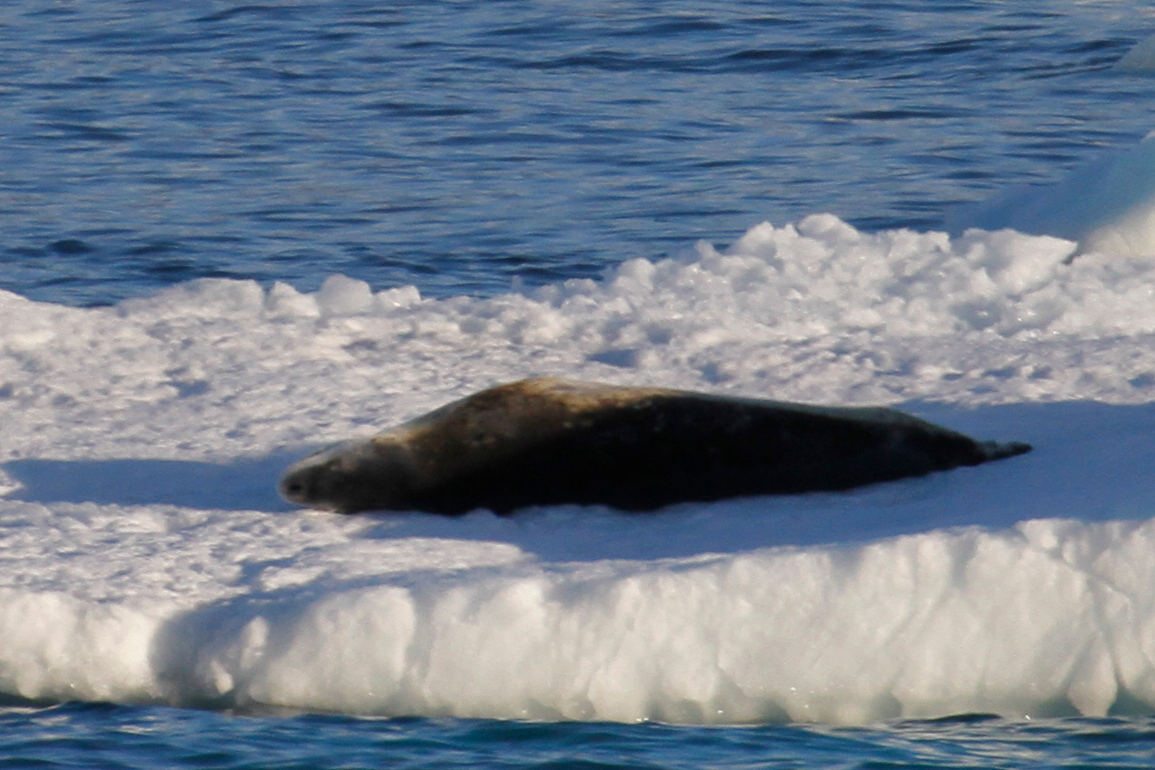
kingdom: Animalia
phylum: Chordata
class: Mammalia
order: Carnivora
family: Phocidae
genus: Hydrurga
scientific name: Hydrurga leptonyx
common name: Leopard seal
